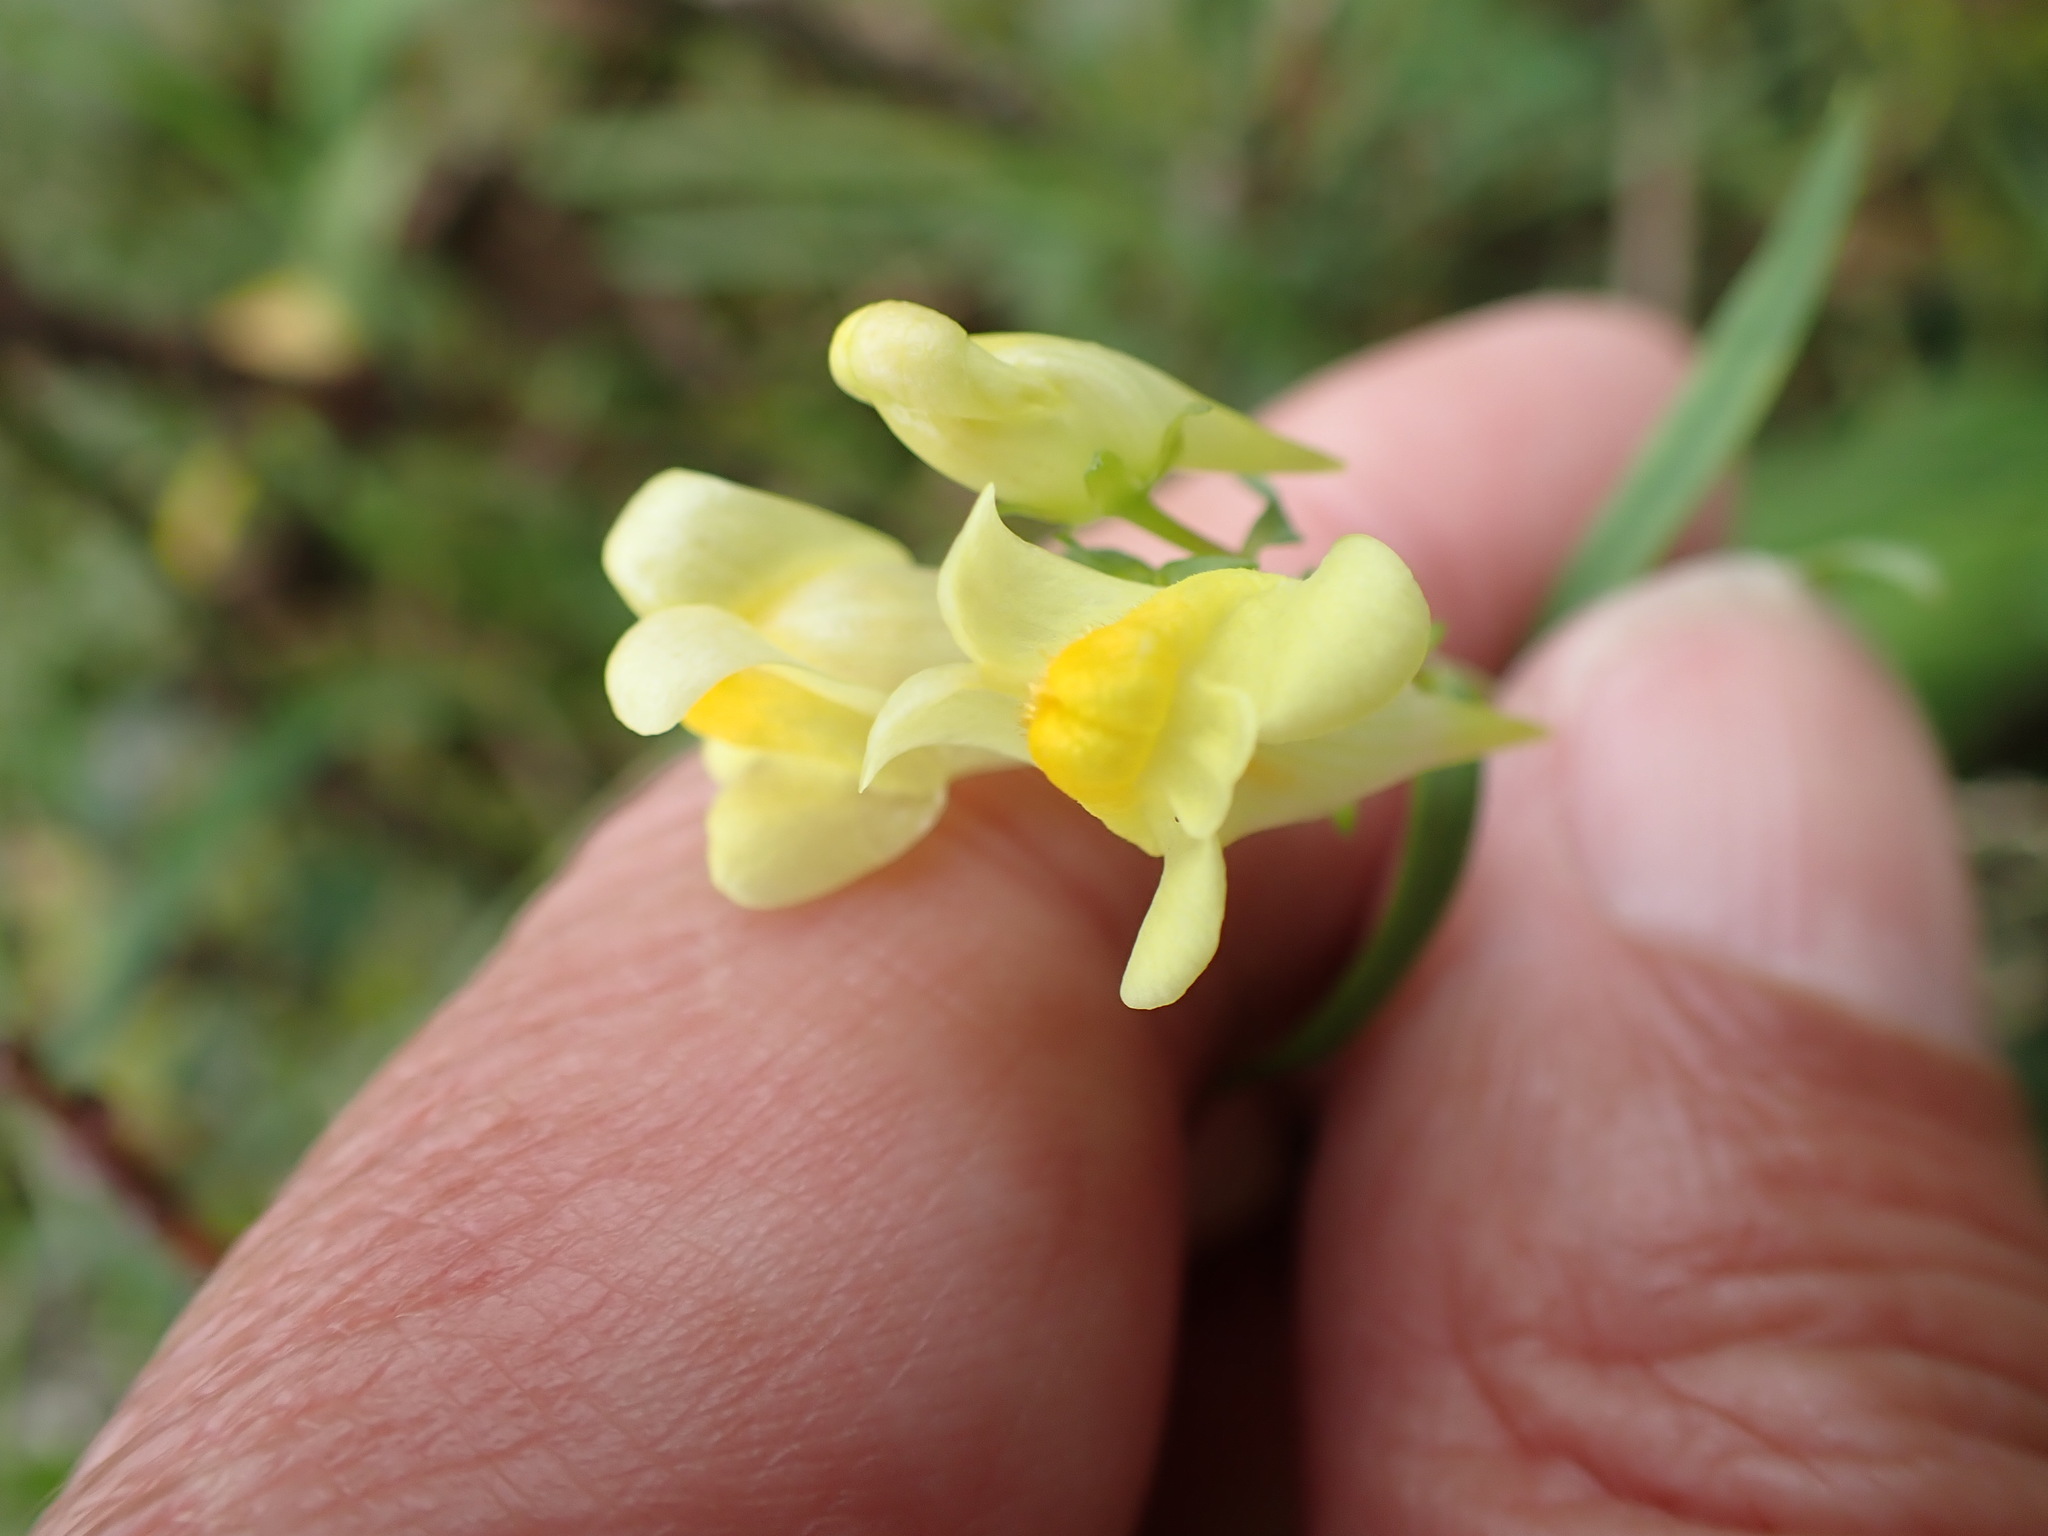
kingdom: Plantae
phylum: Tracheophyta
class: Magnoliopsida
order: Lamiales
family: Plantaginaceae
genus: Linaria
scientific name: Linaria vulgaris
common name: Butter and eggs
